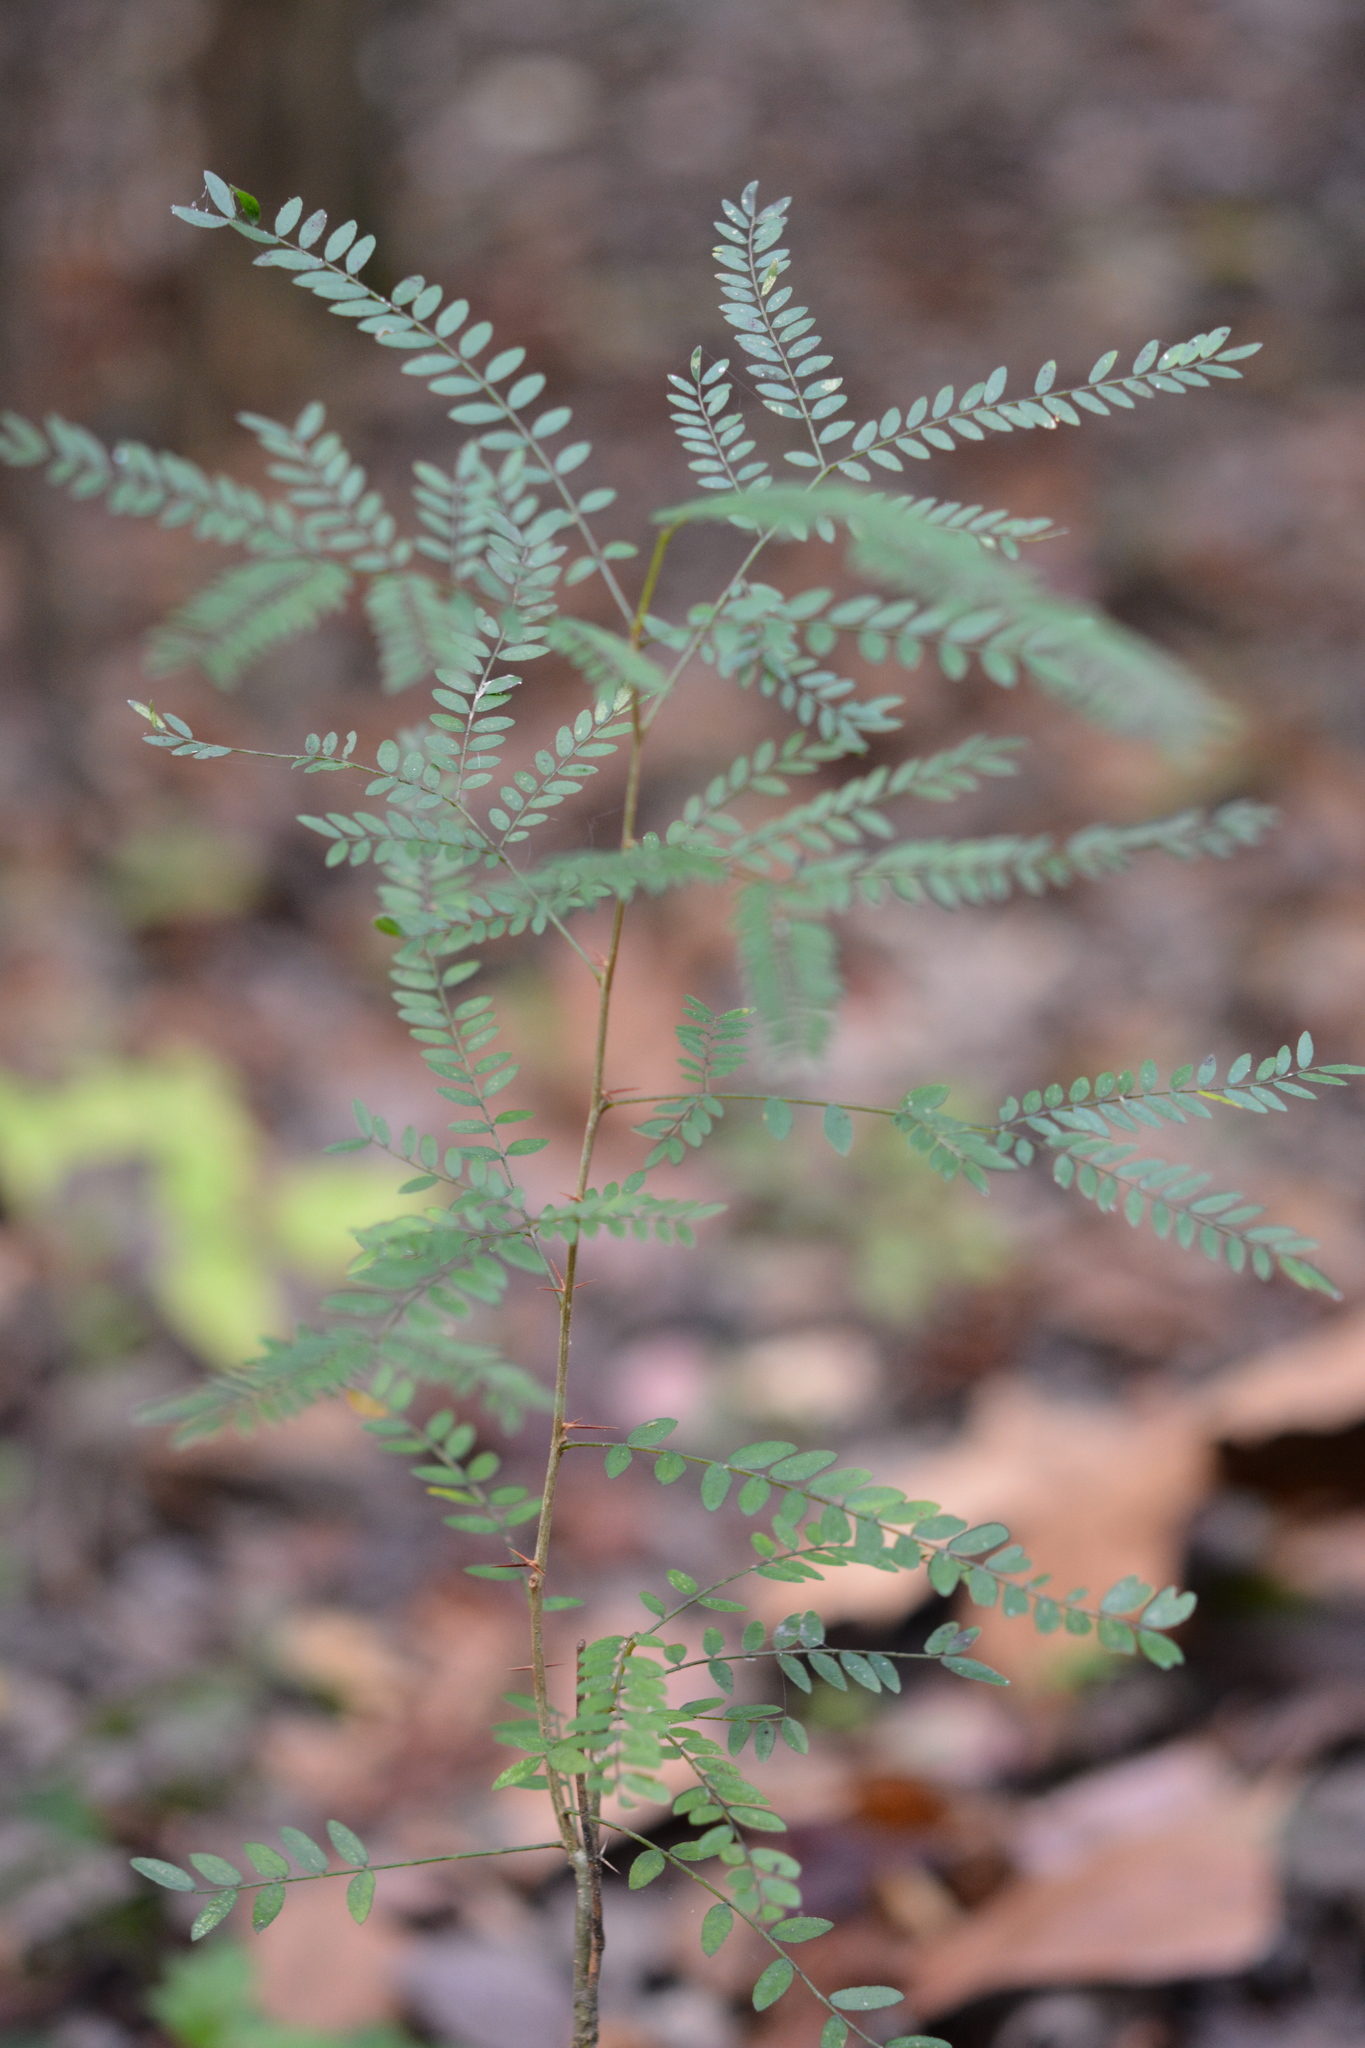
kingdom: Plantae
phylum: Tracheophyta
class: Magnoliopsida
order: Fabales
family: Fabaceae
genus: Gleditsia
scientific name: Gleditsia triacanthos
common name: Common honeylocust
